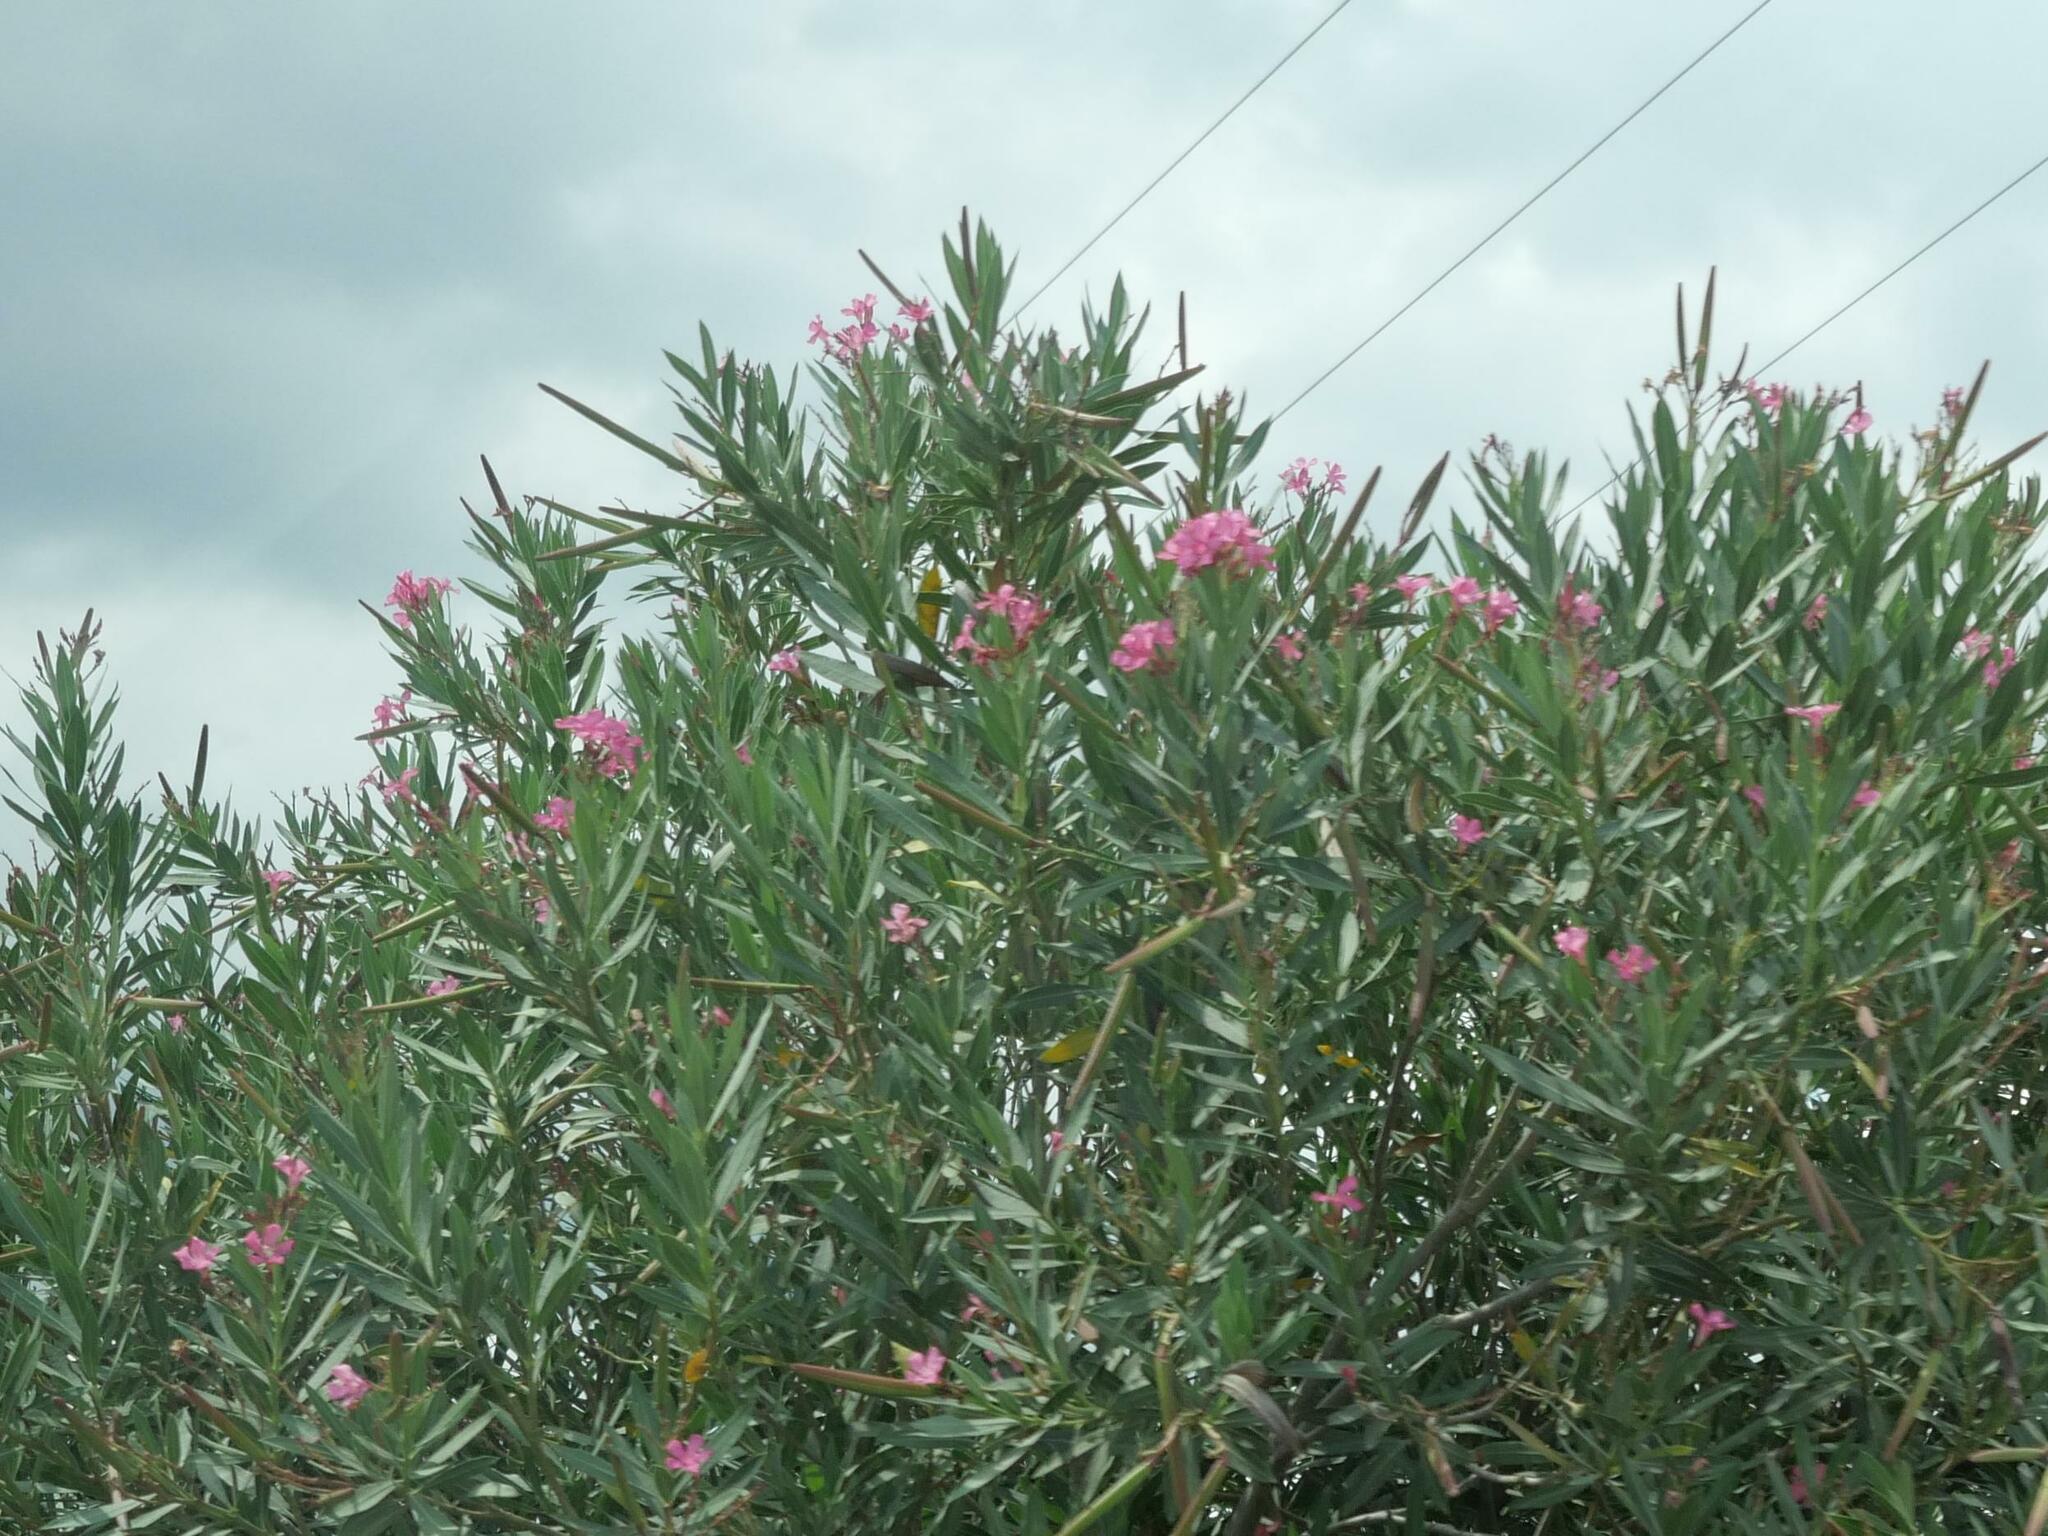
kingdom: Plantae
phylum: Tracheophyta
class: Magnoliopsida
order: Gentianales
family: Apocynaceae
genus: Nerium
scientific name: Nerium oleander
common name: Oleander
